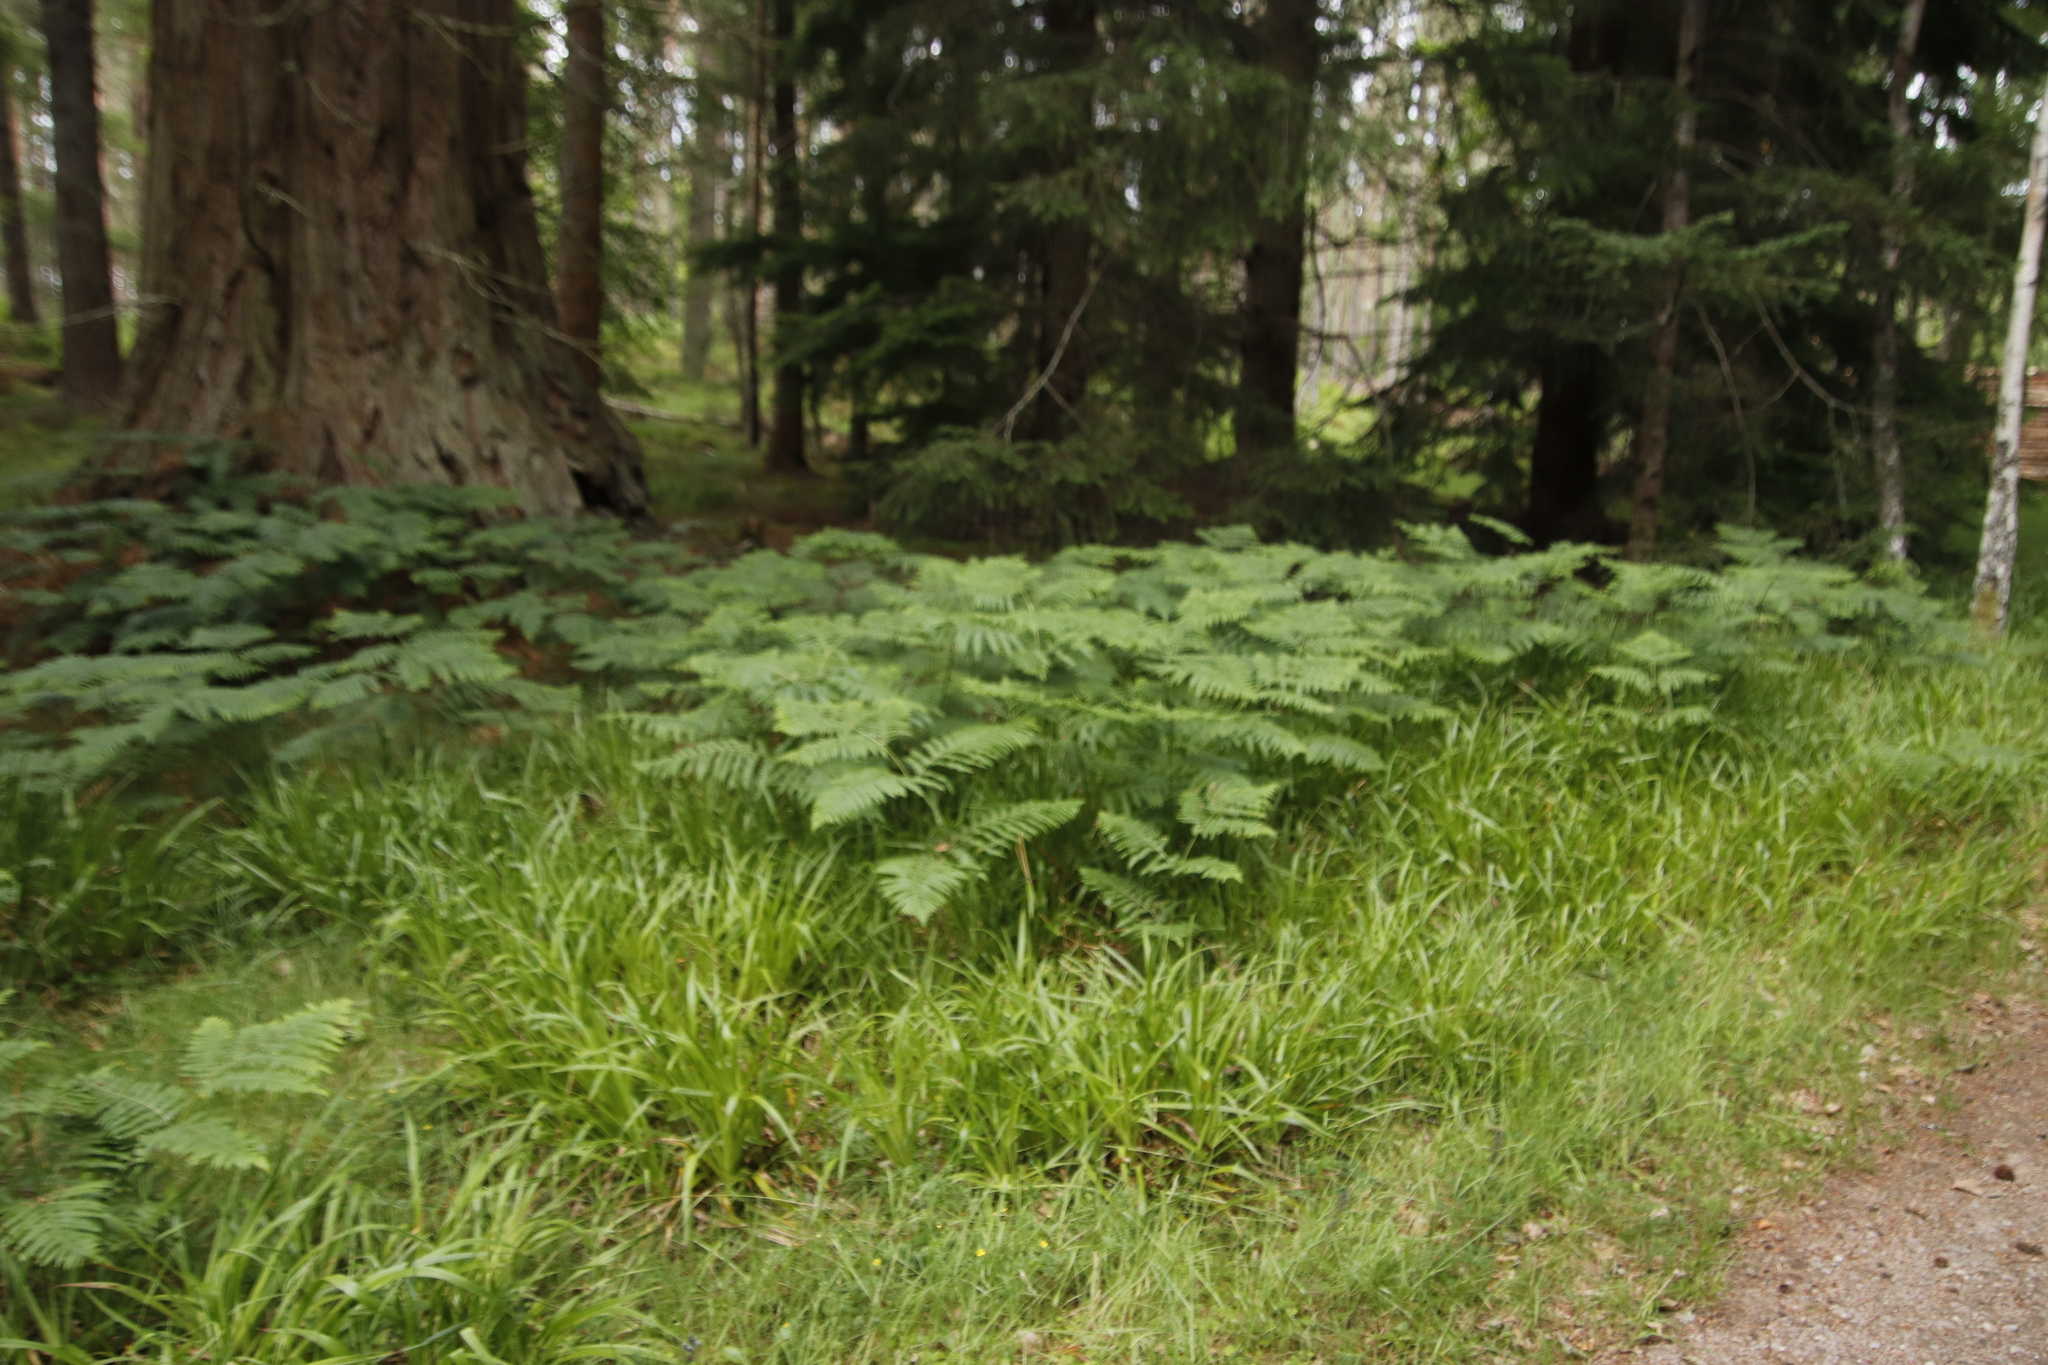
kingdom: Plantae
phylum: Tracheophyta
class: Polypodiopsida
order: Polypodiales
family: Dennstaedtiaceae
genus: Pteridium
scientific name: Pteridium aquilinum
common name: Bracken
